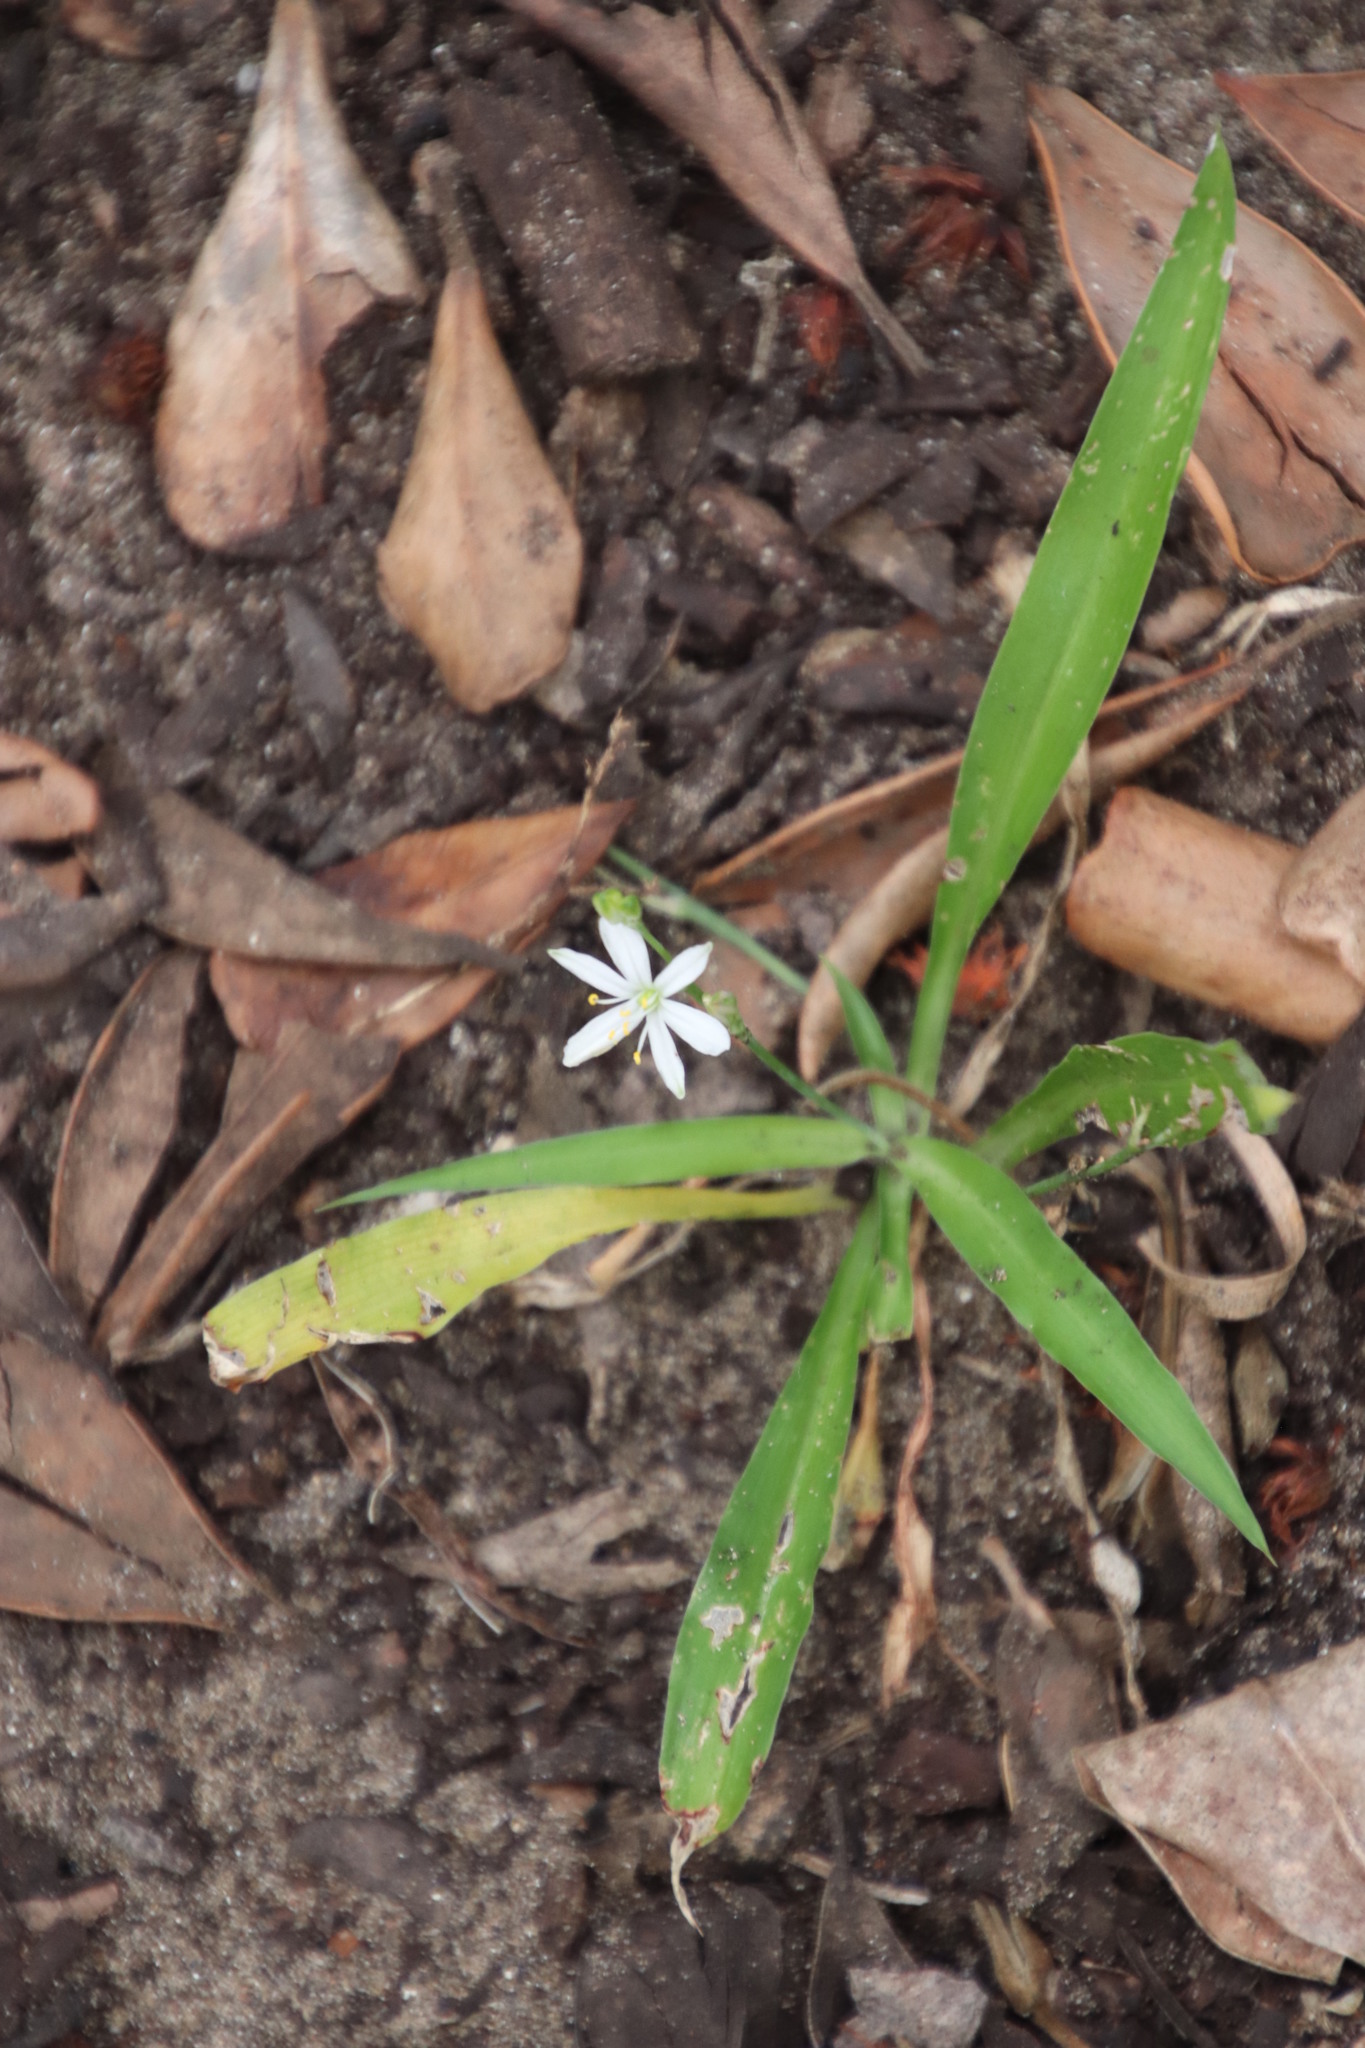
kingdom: Plantae
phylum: Tracheophyta
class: Liliopsida
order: Asparagales
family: Asparagaceae
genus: Chlorophytum
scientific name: Chlorophytum modestum
